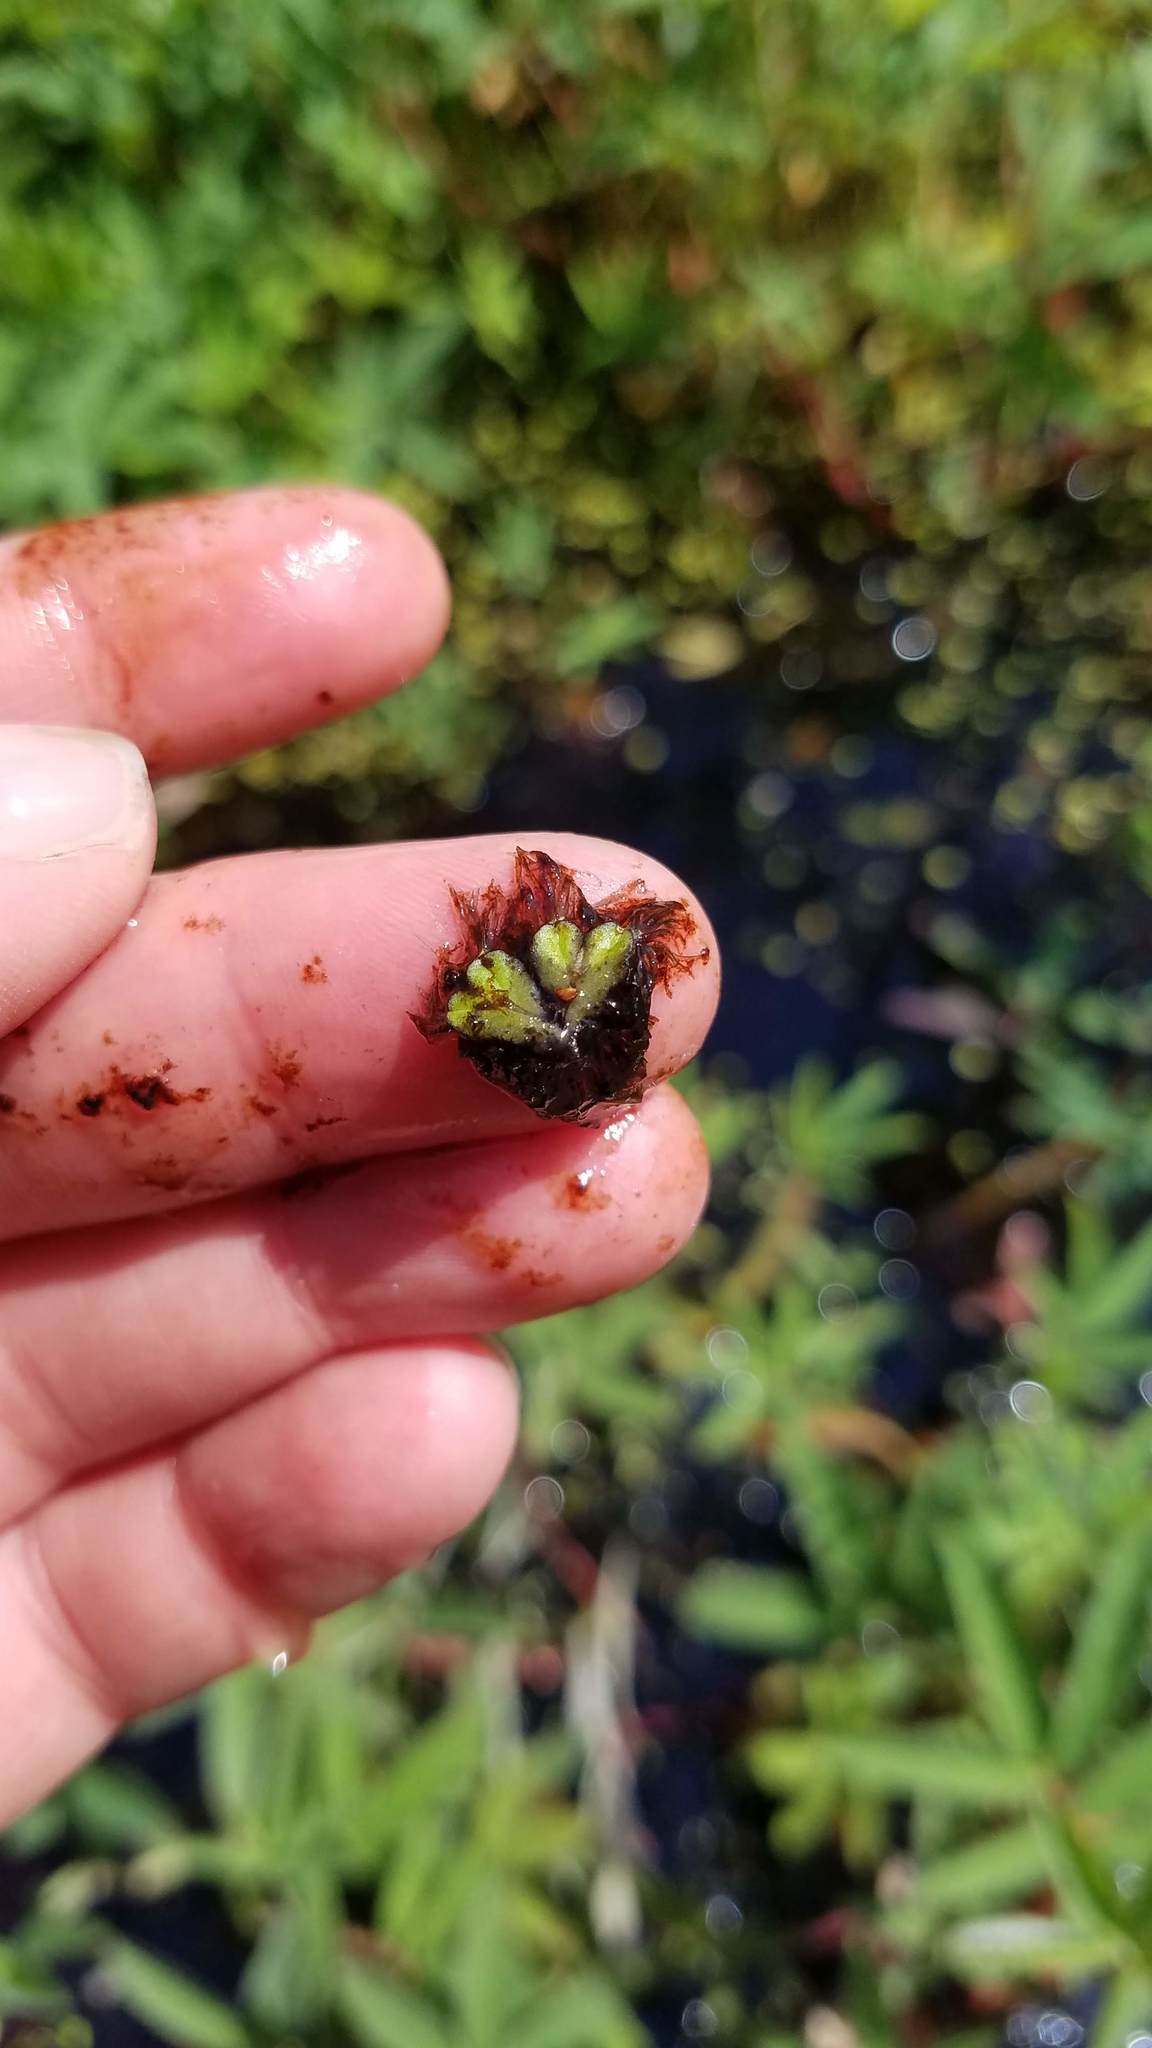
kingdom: Plantae
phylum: Marchantiophyta
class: Marchantiopsida
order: Marchantiales
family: Ricciaceae
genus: Ricciocarpos
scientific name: Ricciocarpos natans
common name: Purple-fringed liverwort
